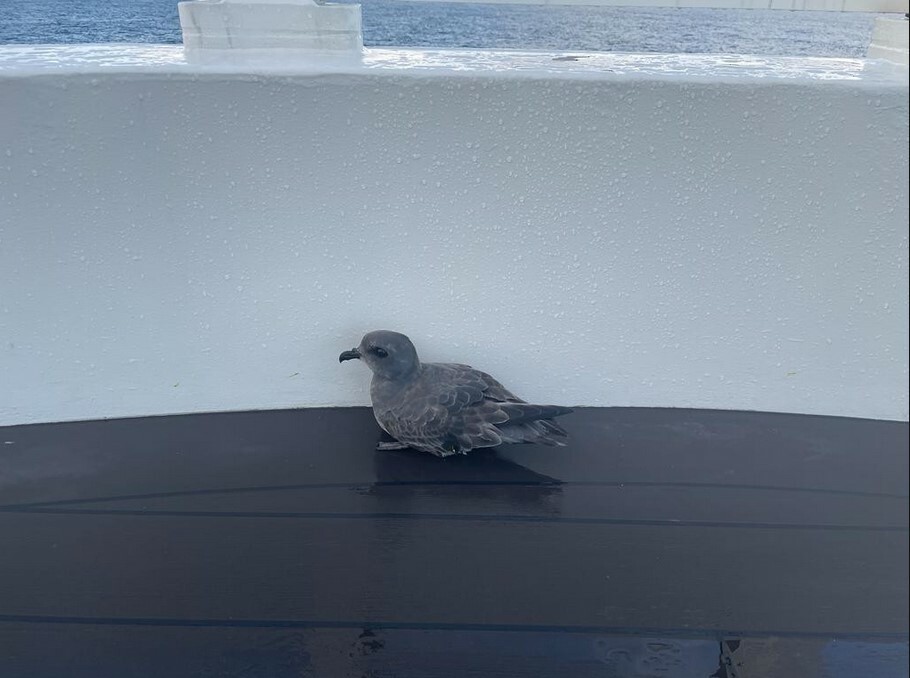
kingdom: Animalia
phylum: Chordata
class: Aves
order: Procellariiformes
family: Procellariidae
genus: Aphrodroma
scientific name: Aphrodroma brevirostris
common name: Kerguelen petrel
